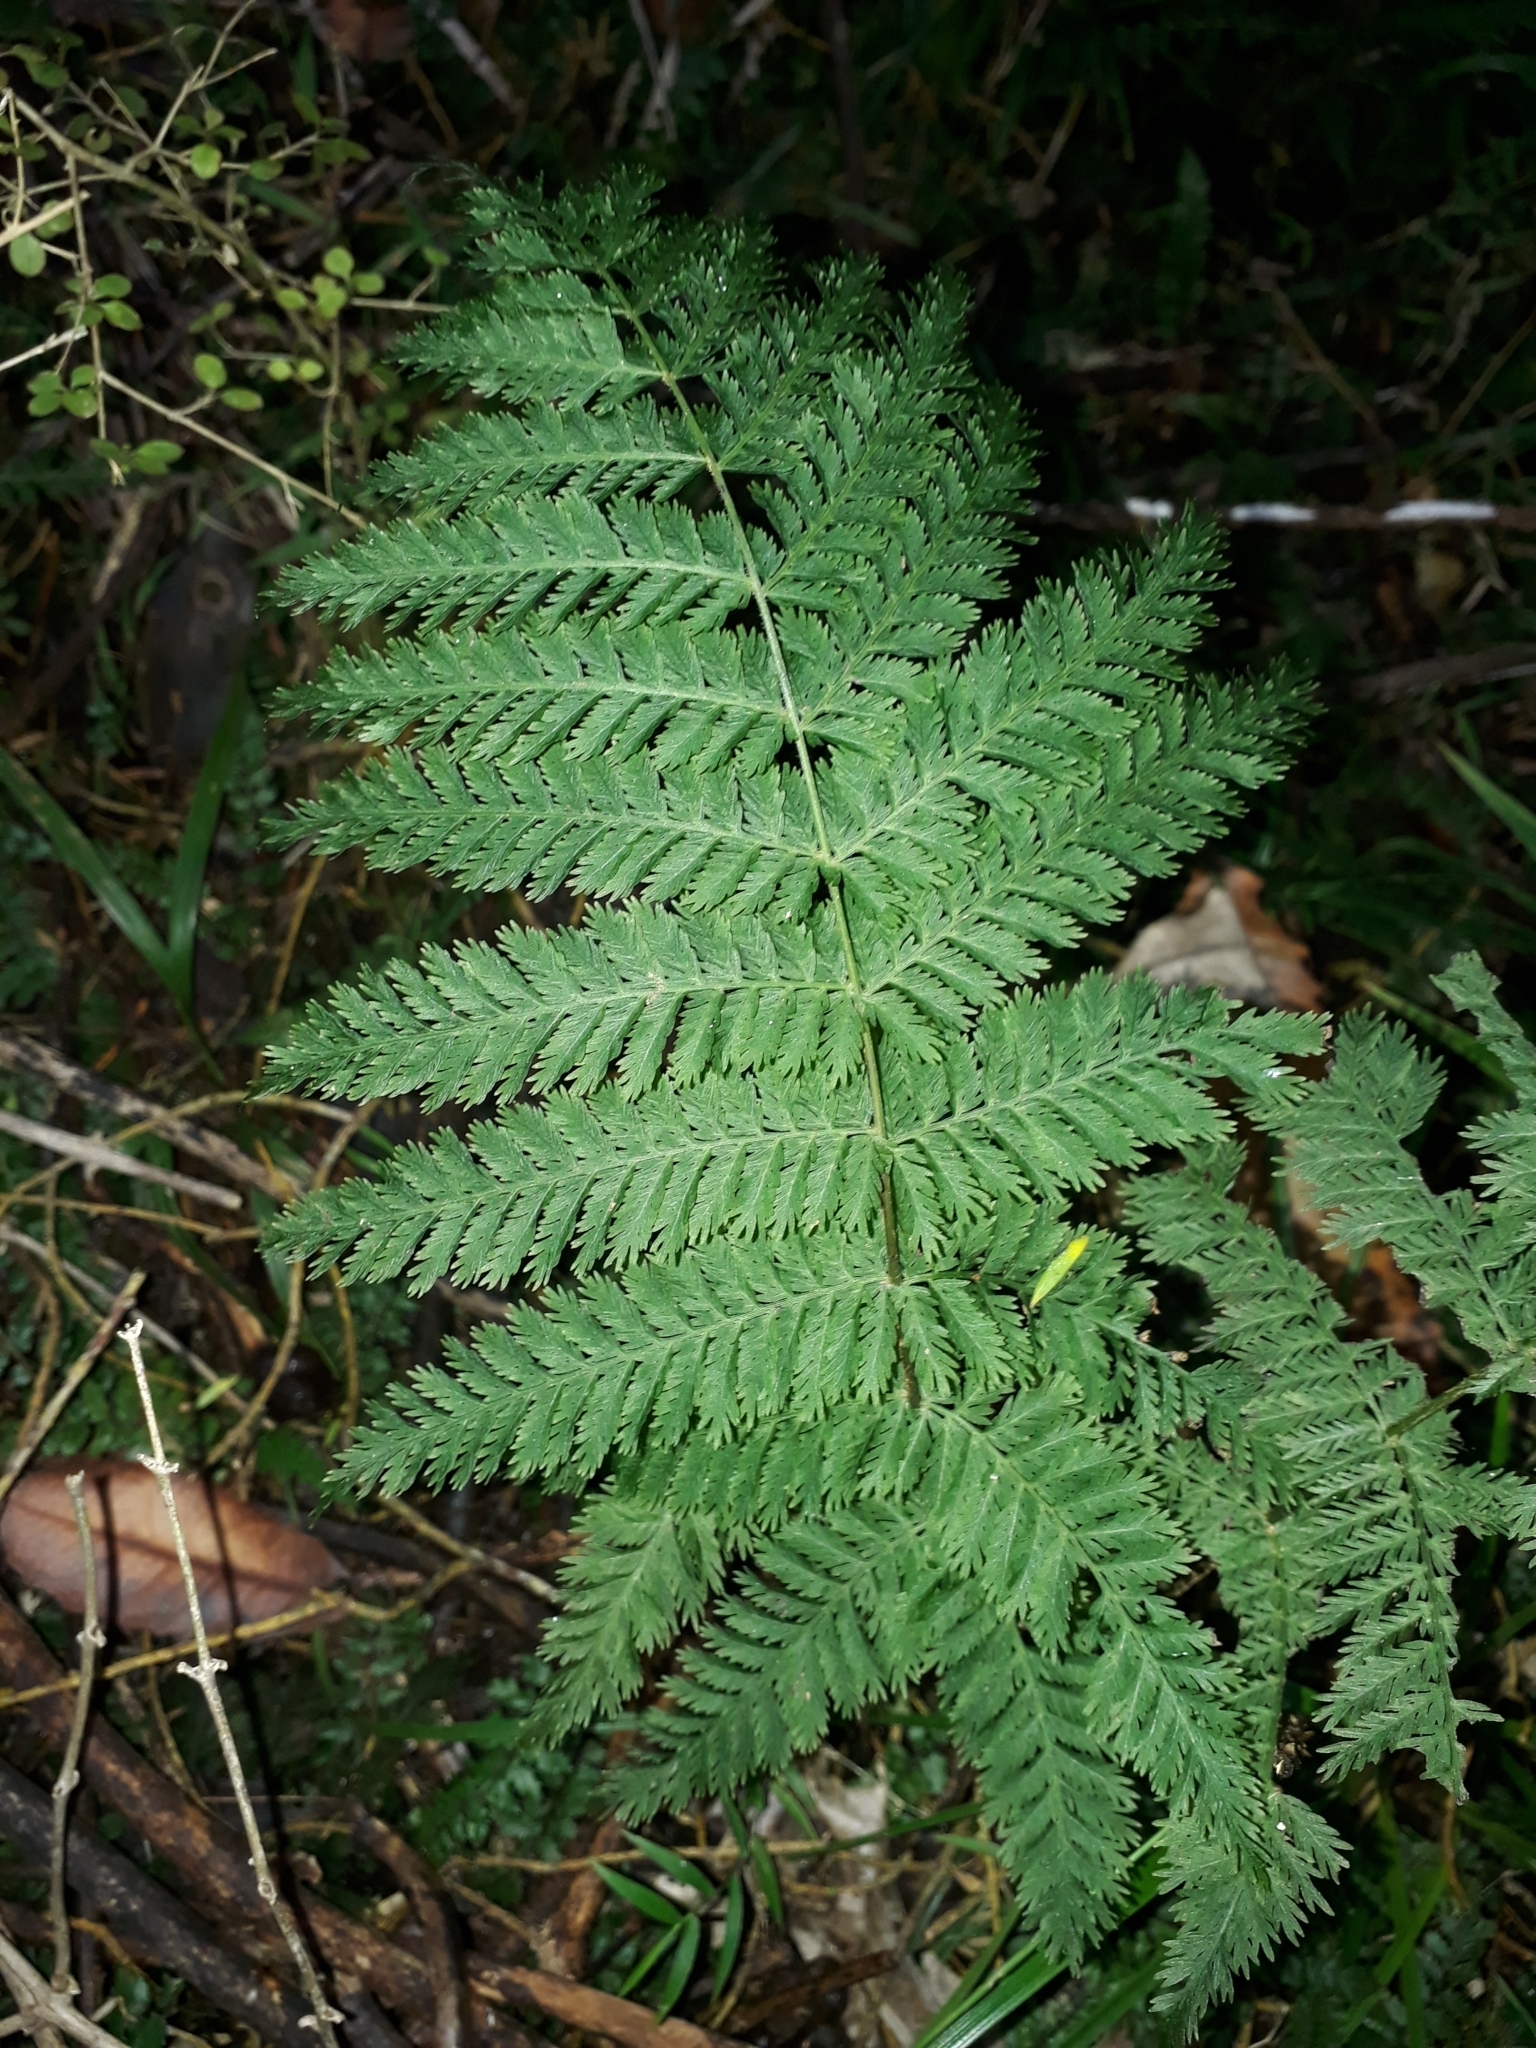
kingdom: Plantae
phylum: Tracheophyta
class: Polypodiopsida
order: Osmundales
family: Osmundaceae
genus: Leptopteris
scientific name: Leptopteris hymenophylloides
